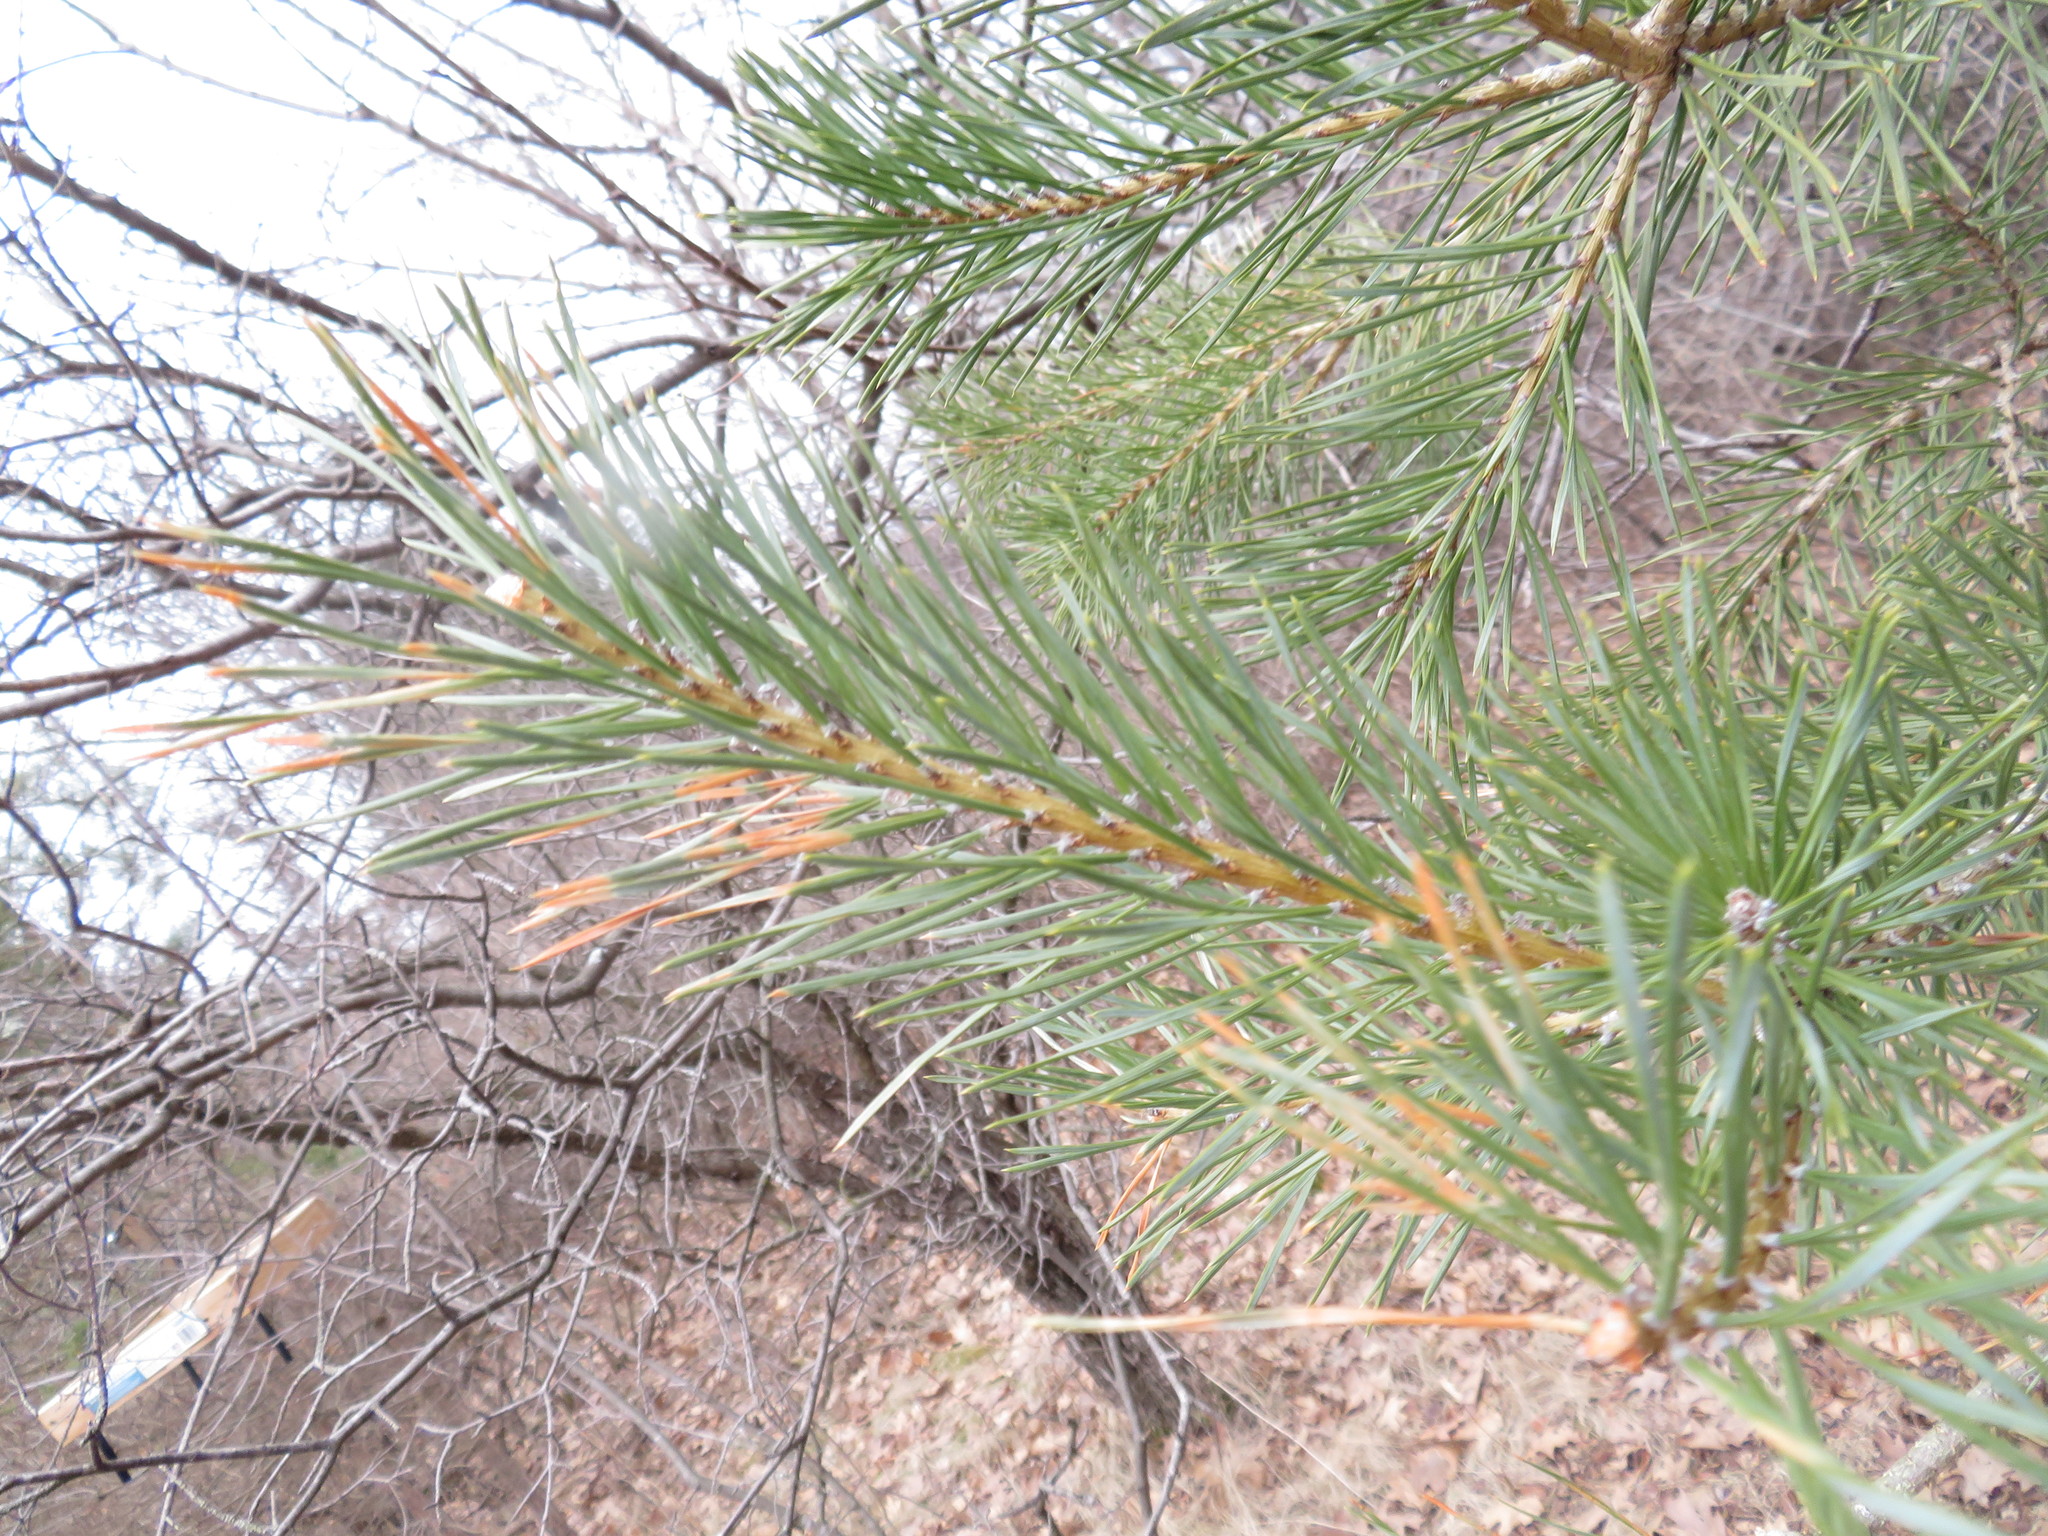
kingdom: Plantae
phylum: Tracheophyta
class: Pinopsida
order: Pinales
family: Pinaceae
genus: Pinus
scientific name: Pinus sylvestris
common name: Scots pine
